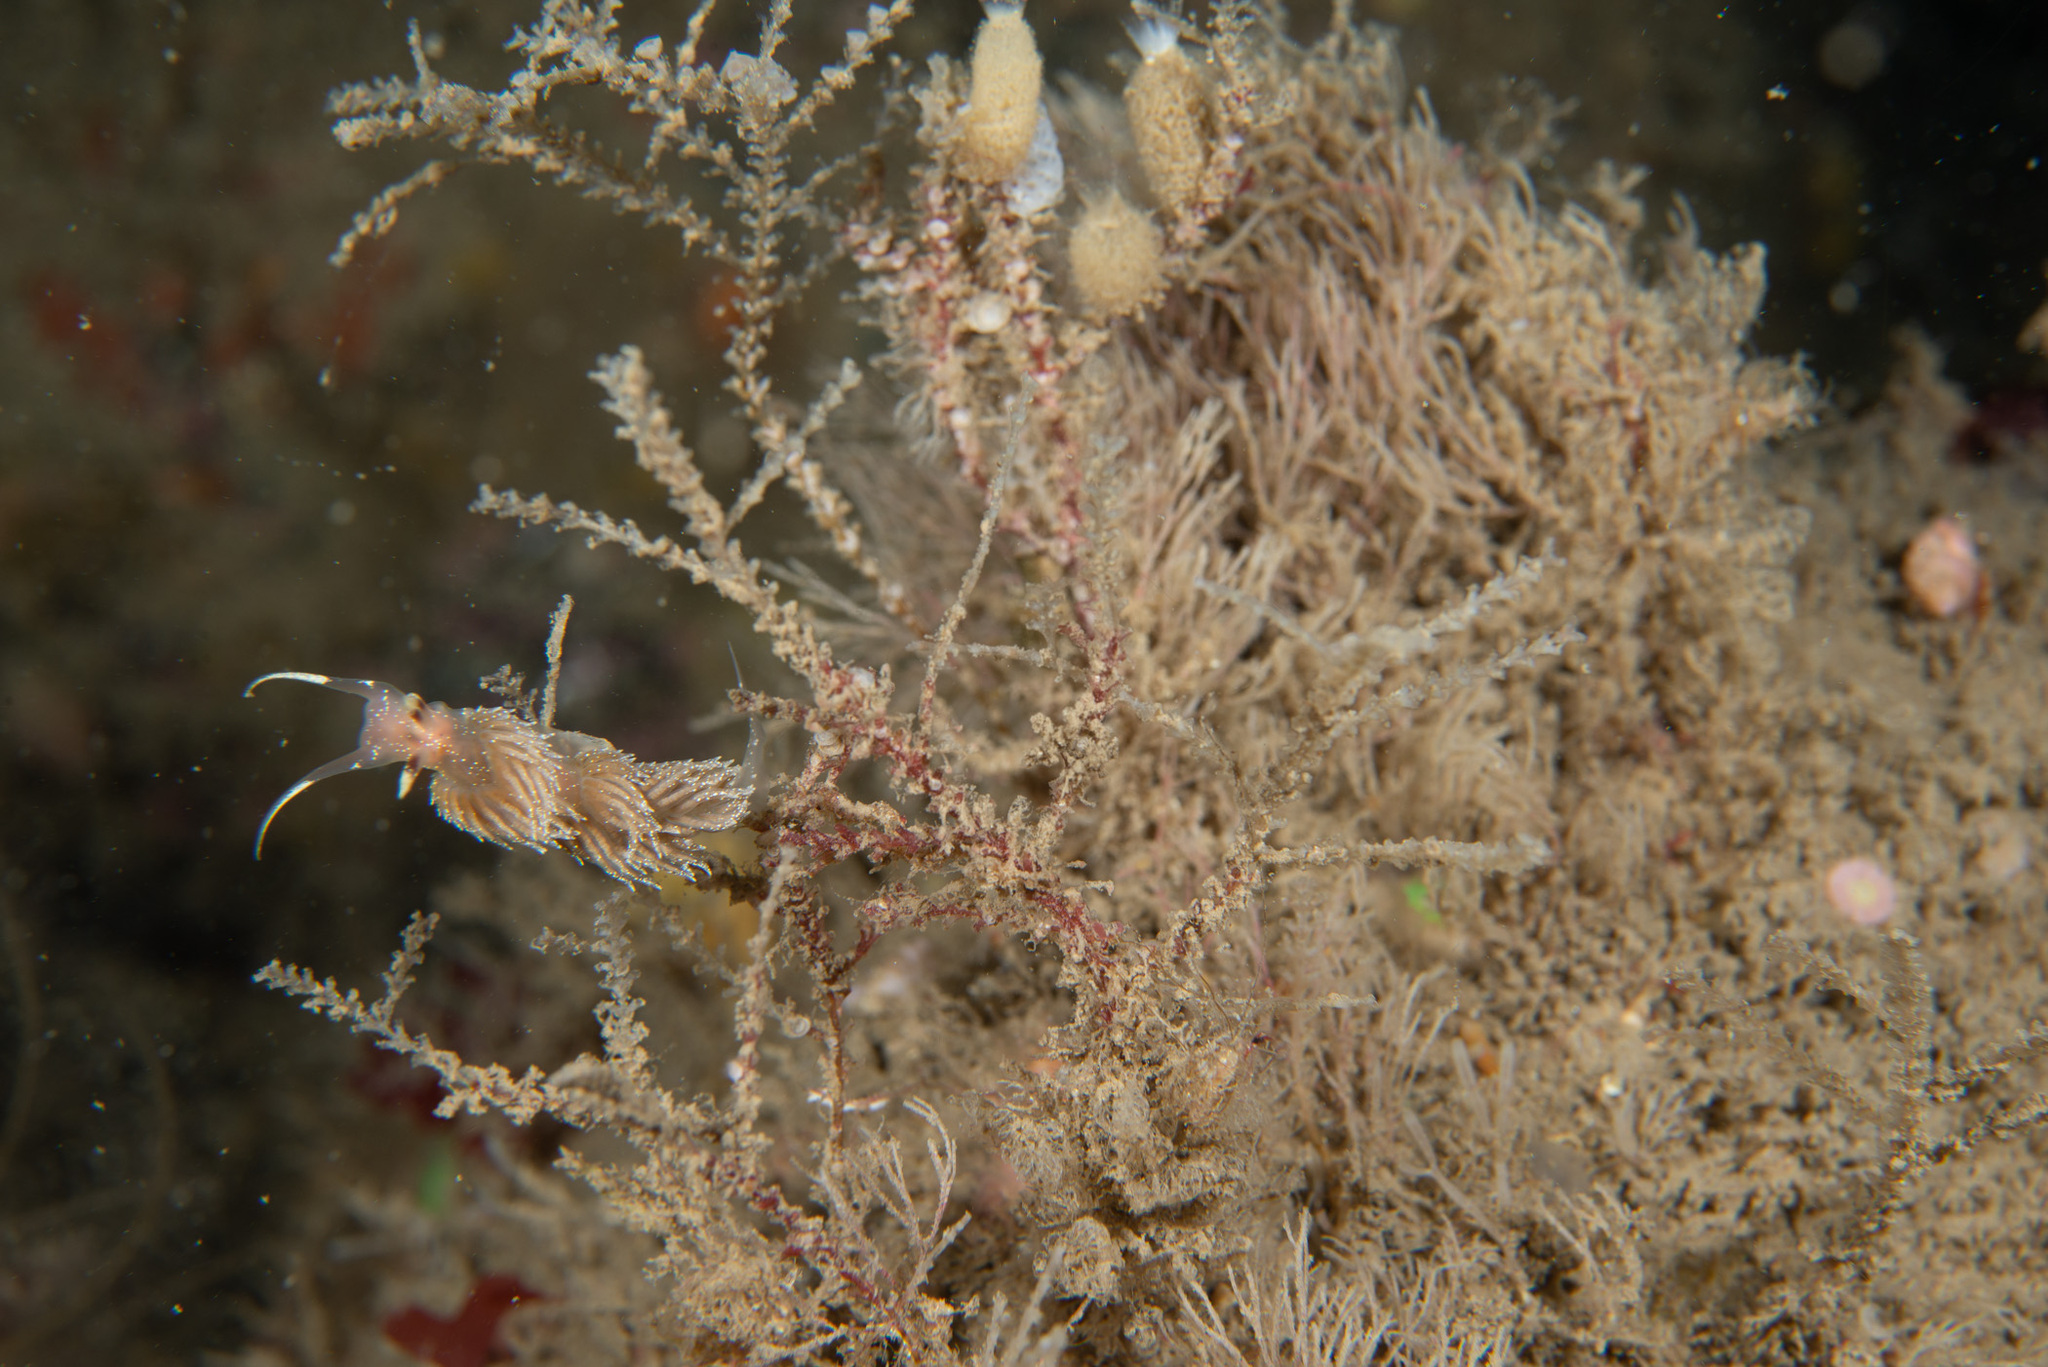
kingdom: Animalia
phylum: Mollusca
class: Gastropoda
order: Nudibranchia
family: Facelinidae
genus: Facelina
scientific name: Facelina annulicornis
